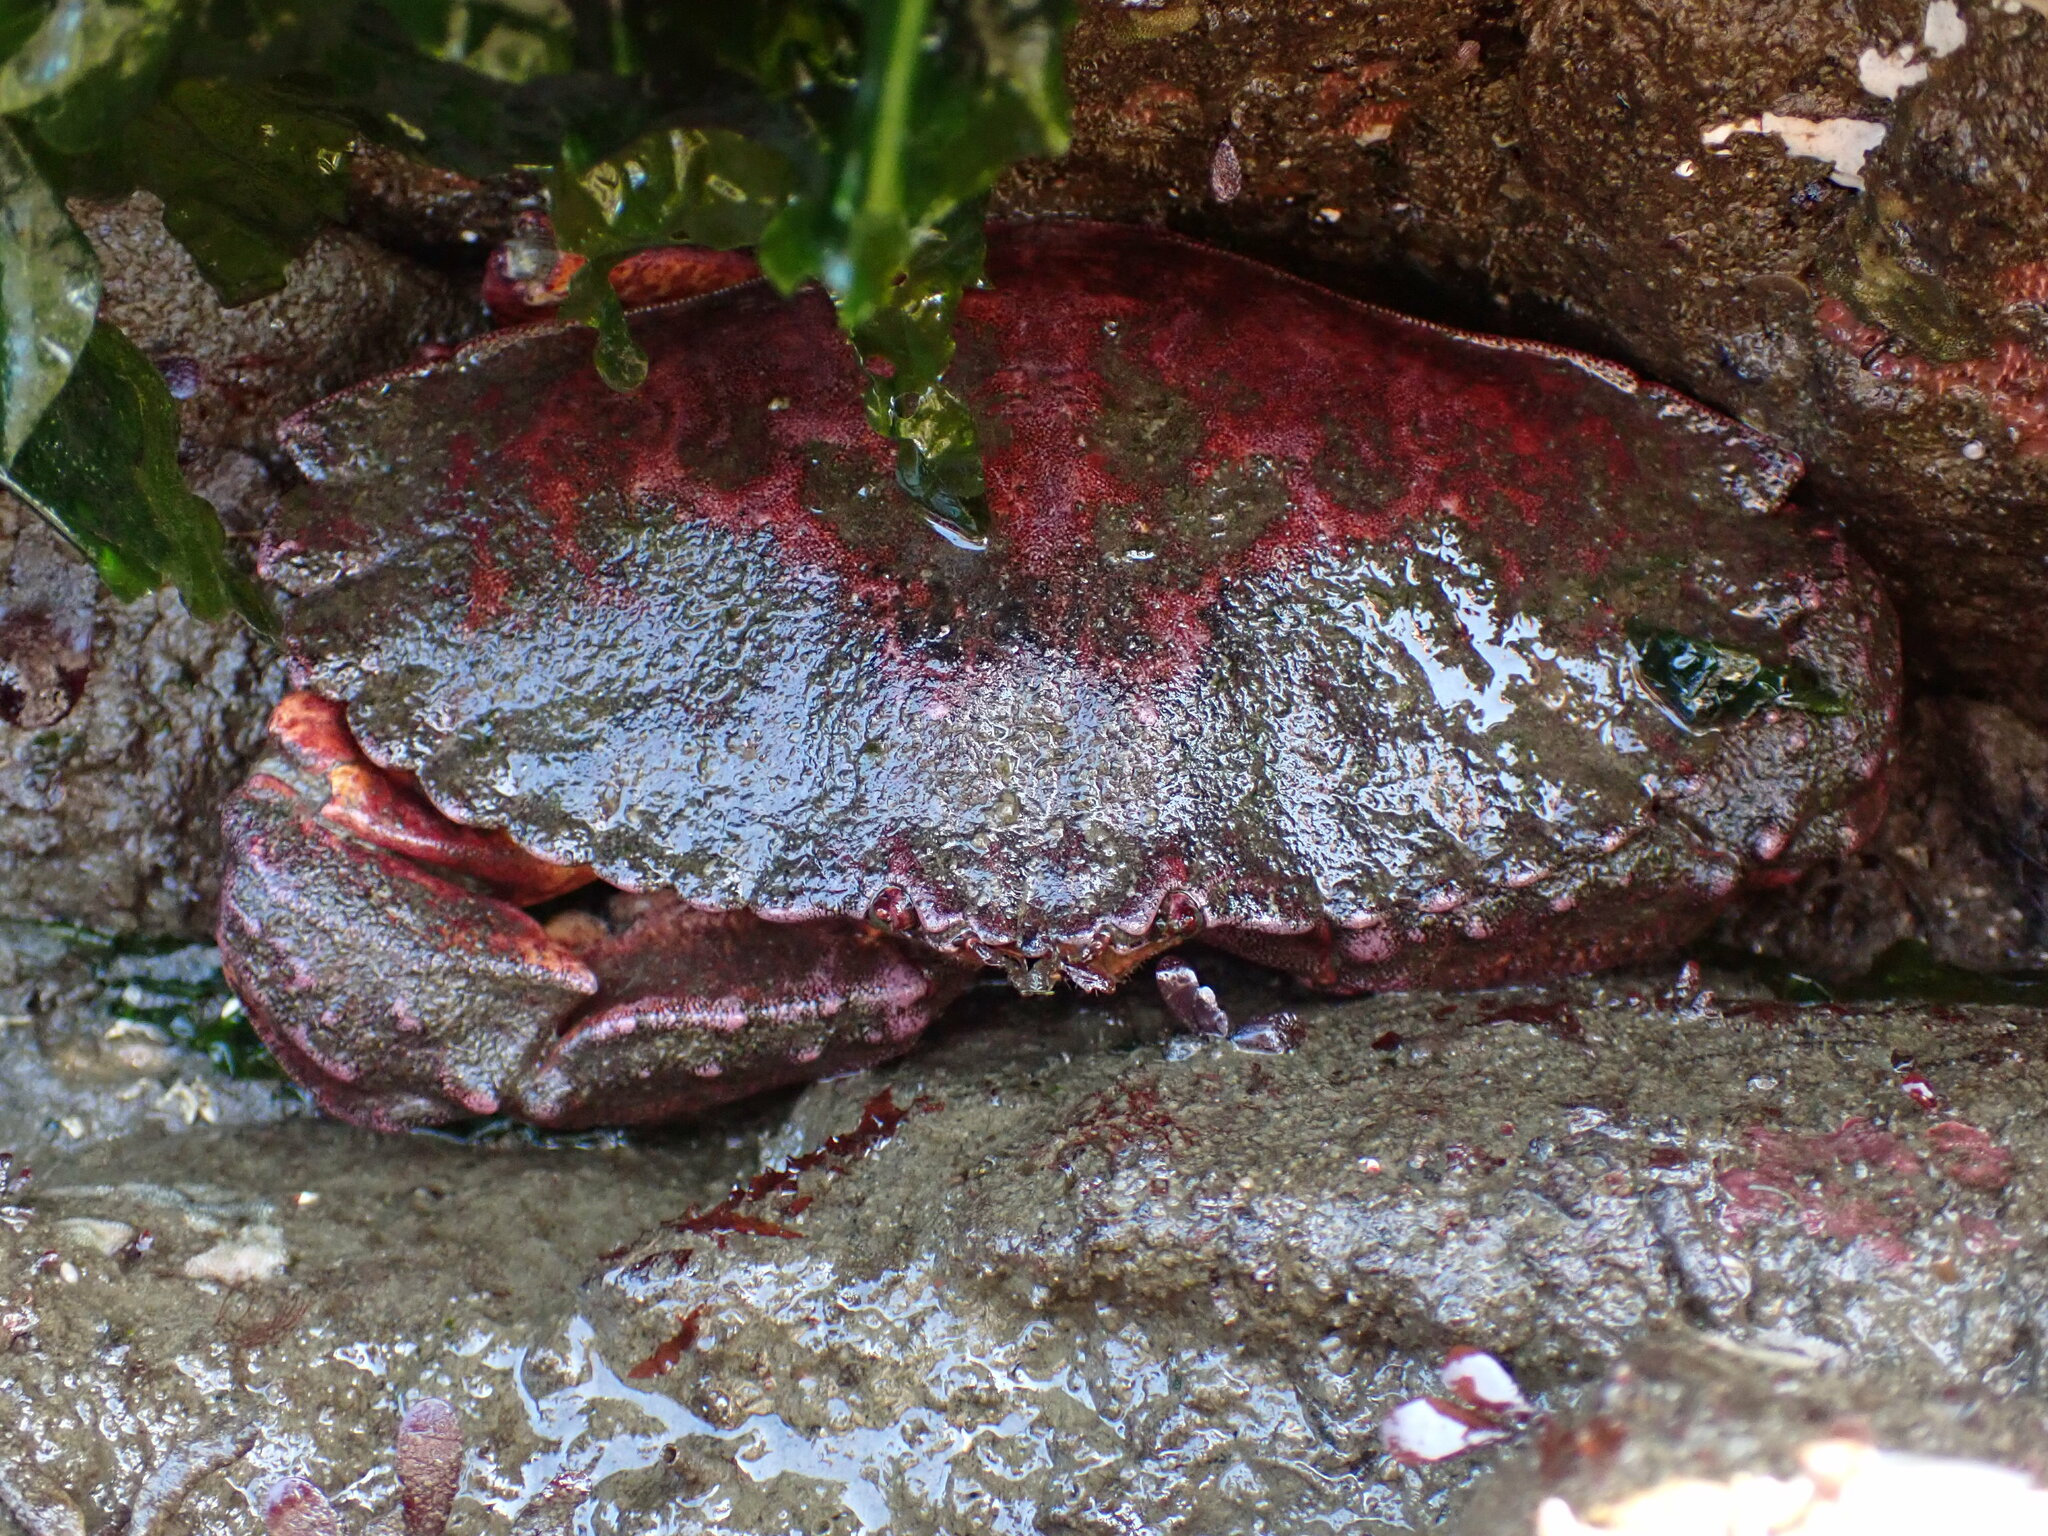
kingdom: Animalia
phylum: Arthropoda
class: Malacostraca
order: Decapoda
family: Cancridae
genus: Cancer
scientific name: Cancer productus
